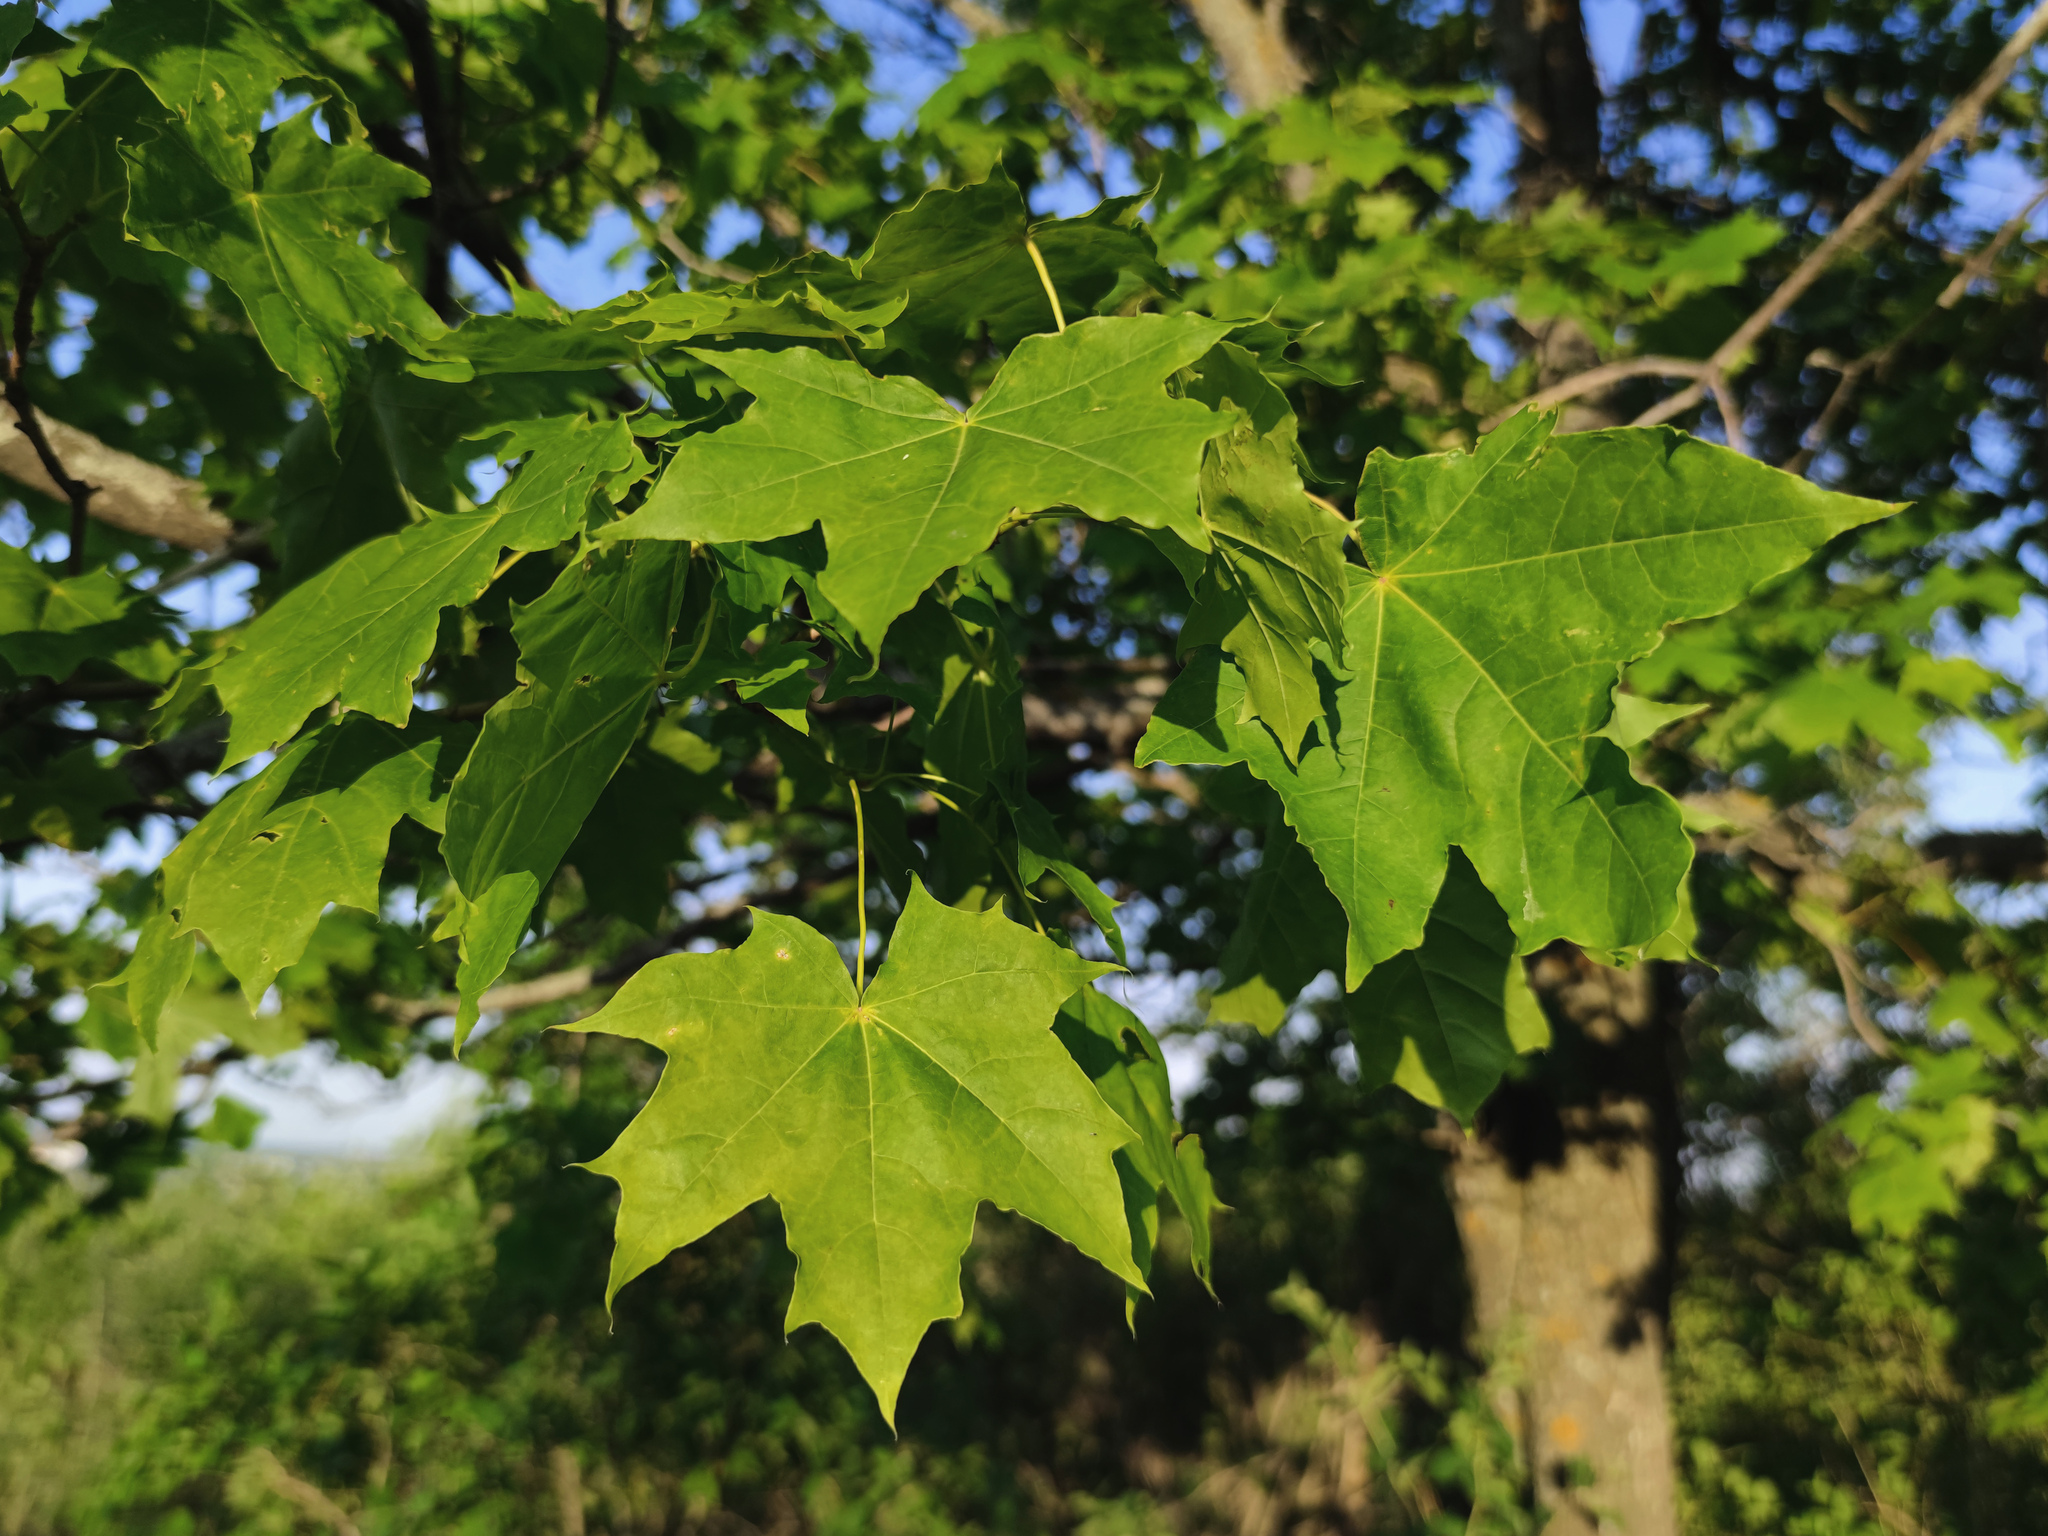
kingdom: Plantae
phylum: Tracheophyta
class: Magnoliopsida
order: Sapindales
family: Sapindaceae
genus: Acer
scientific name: Acer platanoides
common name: Norway maple
